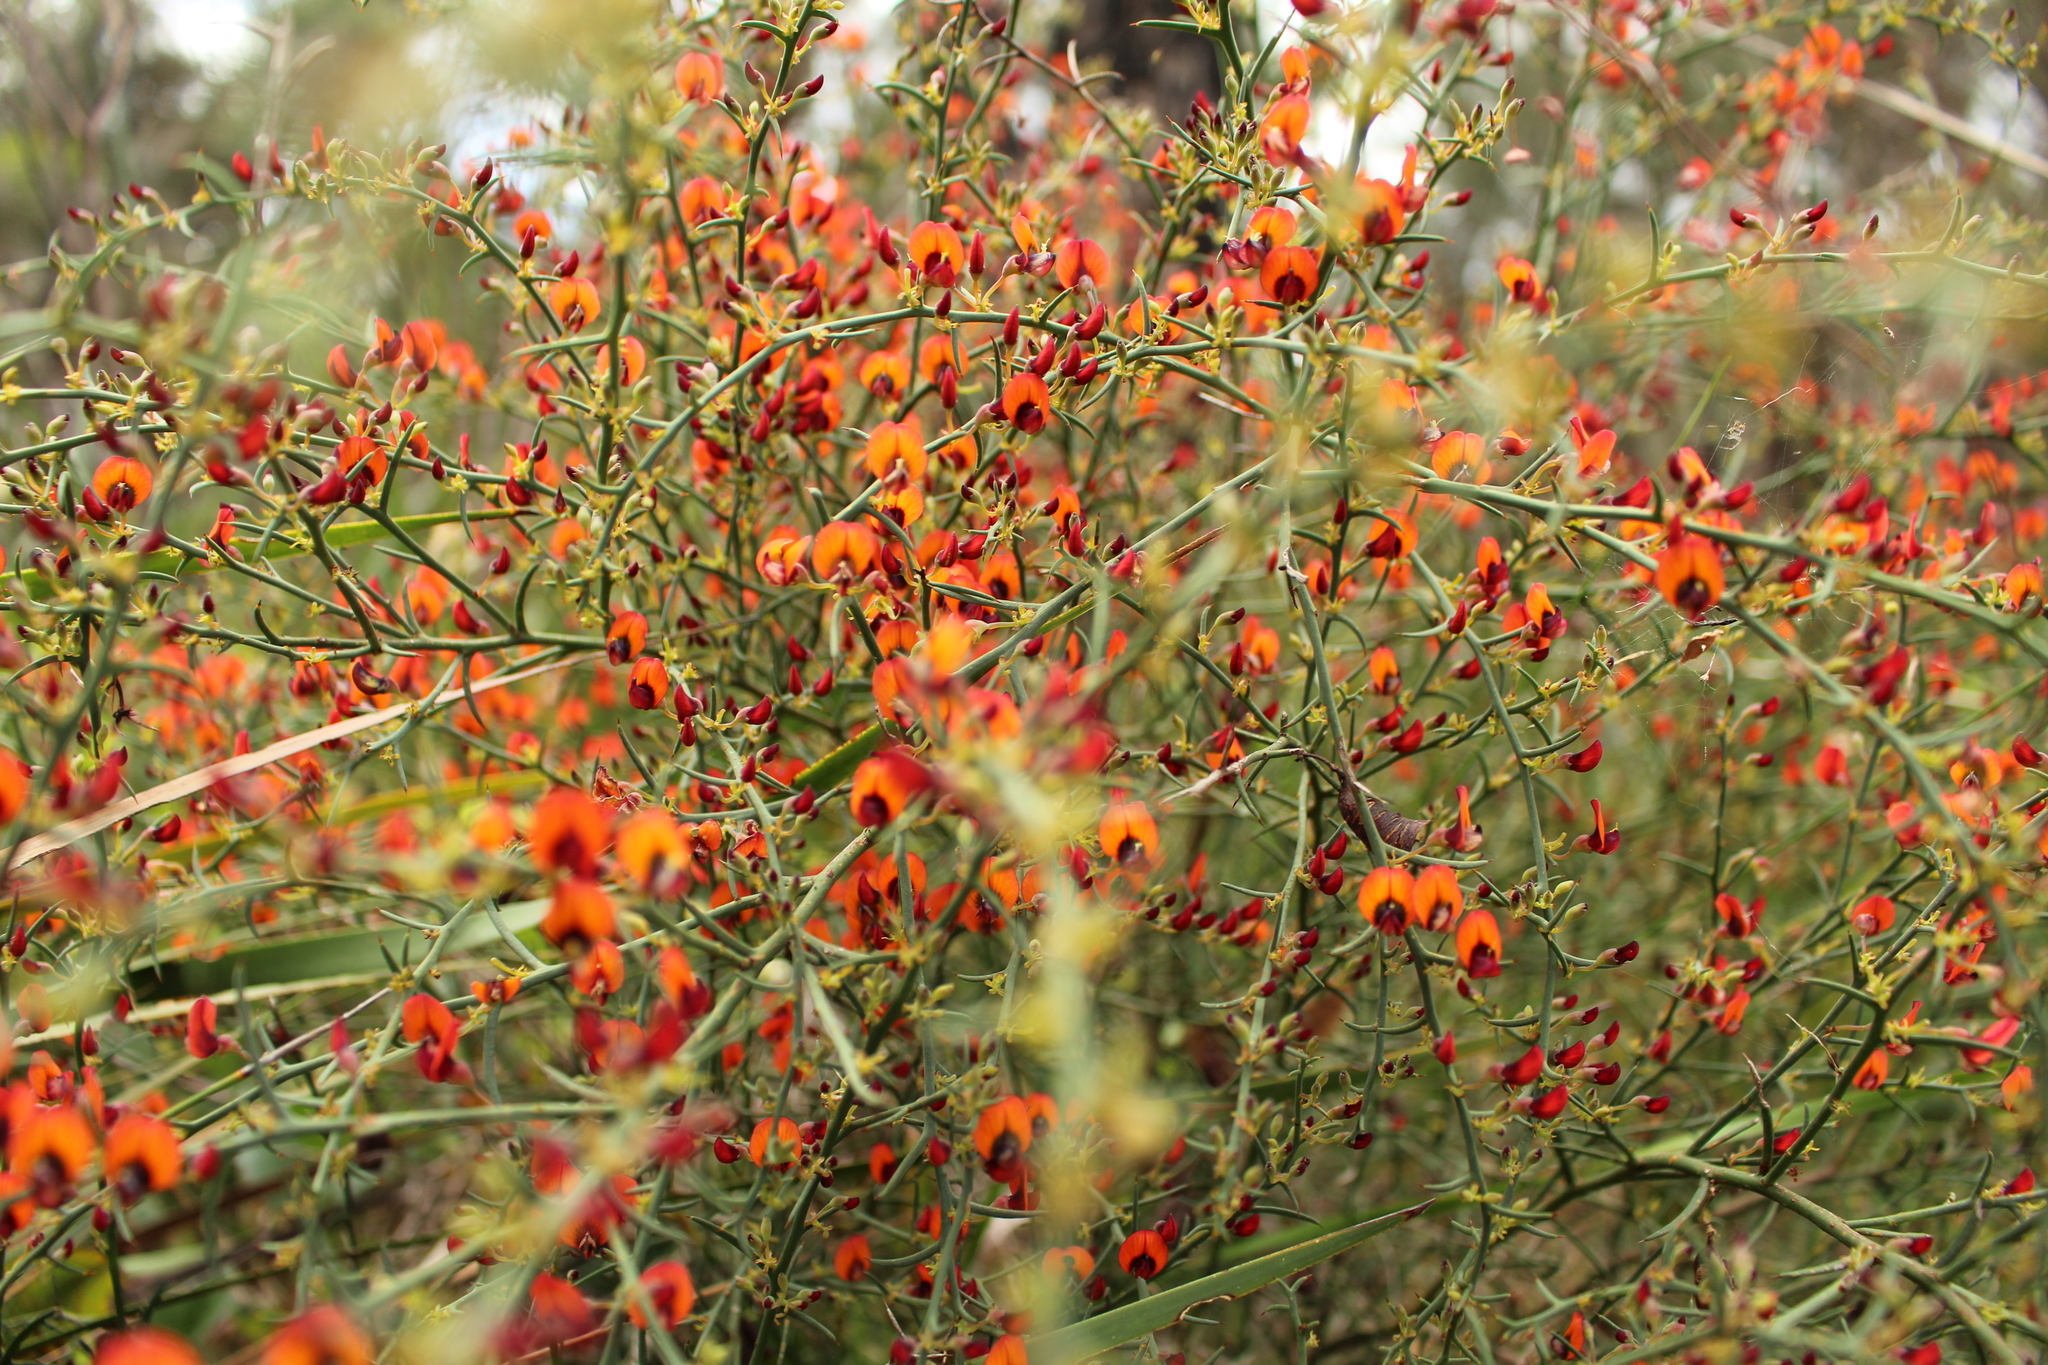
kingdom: Plantae
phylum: Tracheophyta
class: Magnoliopsida
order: Fabales
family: Fabaceae
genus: Daviesia
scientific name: Daviesia incrassata
